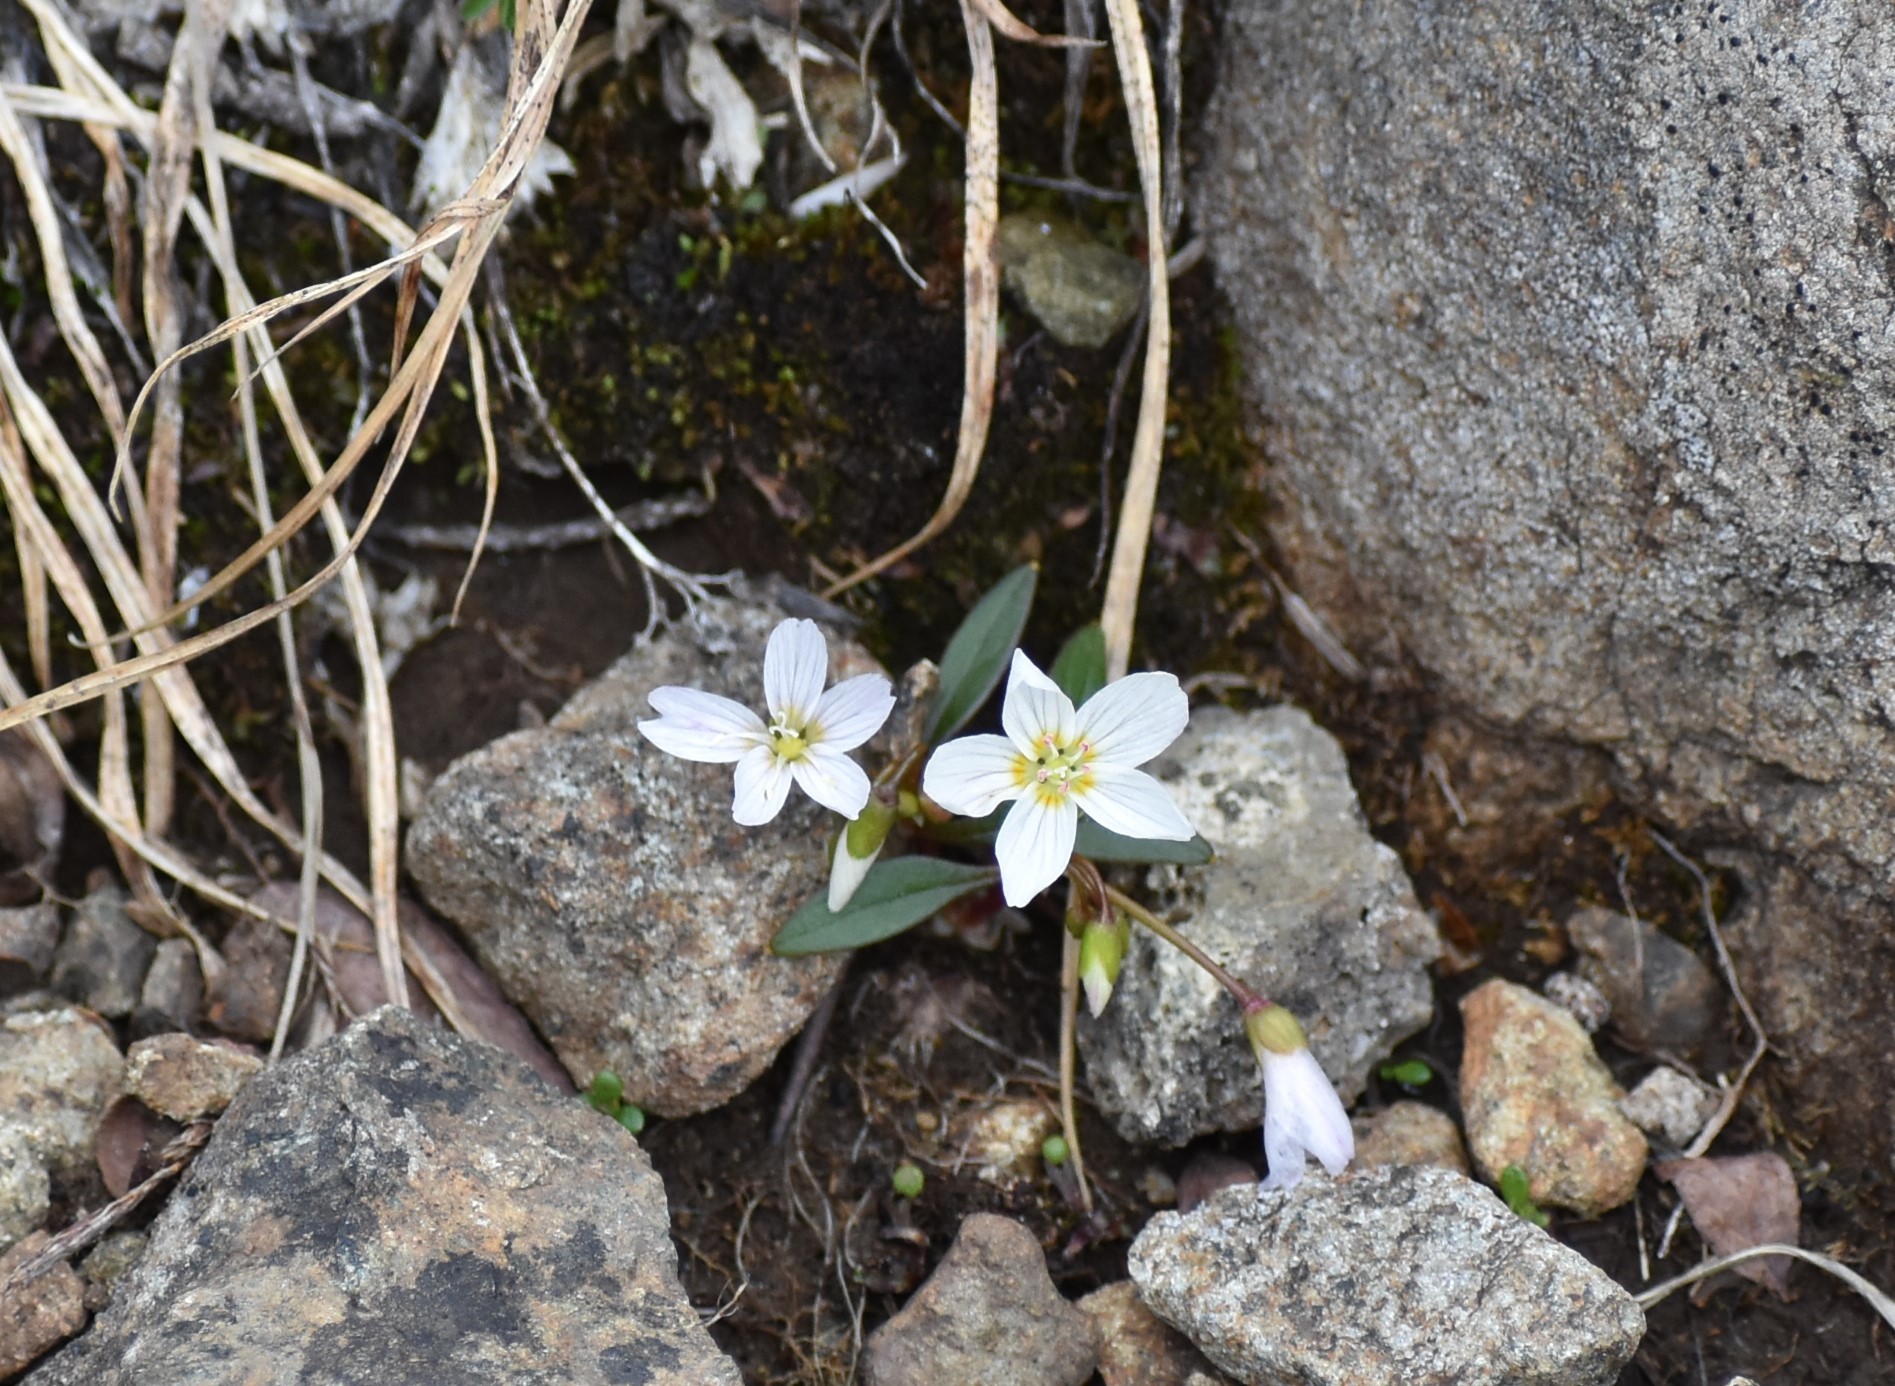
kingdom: Plantae
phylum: Tracheophyta
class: Magnoliopsida
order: Caryophyllales
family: Montiaceae
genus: Claytonia
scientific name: Claytonia multiscapa
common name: Lanceleaf springbeauty
